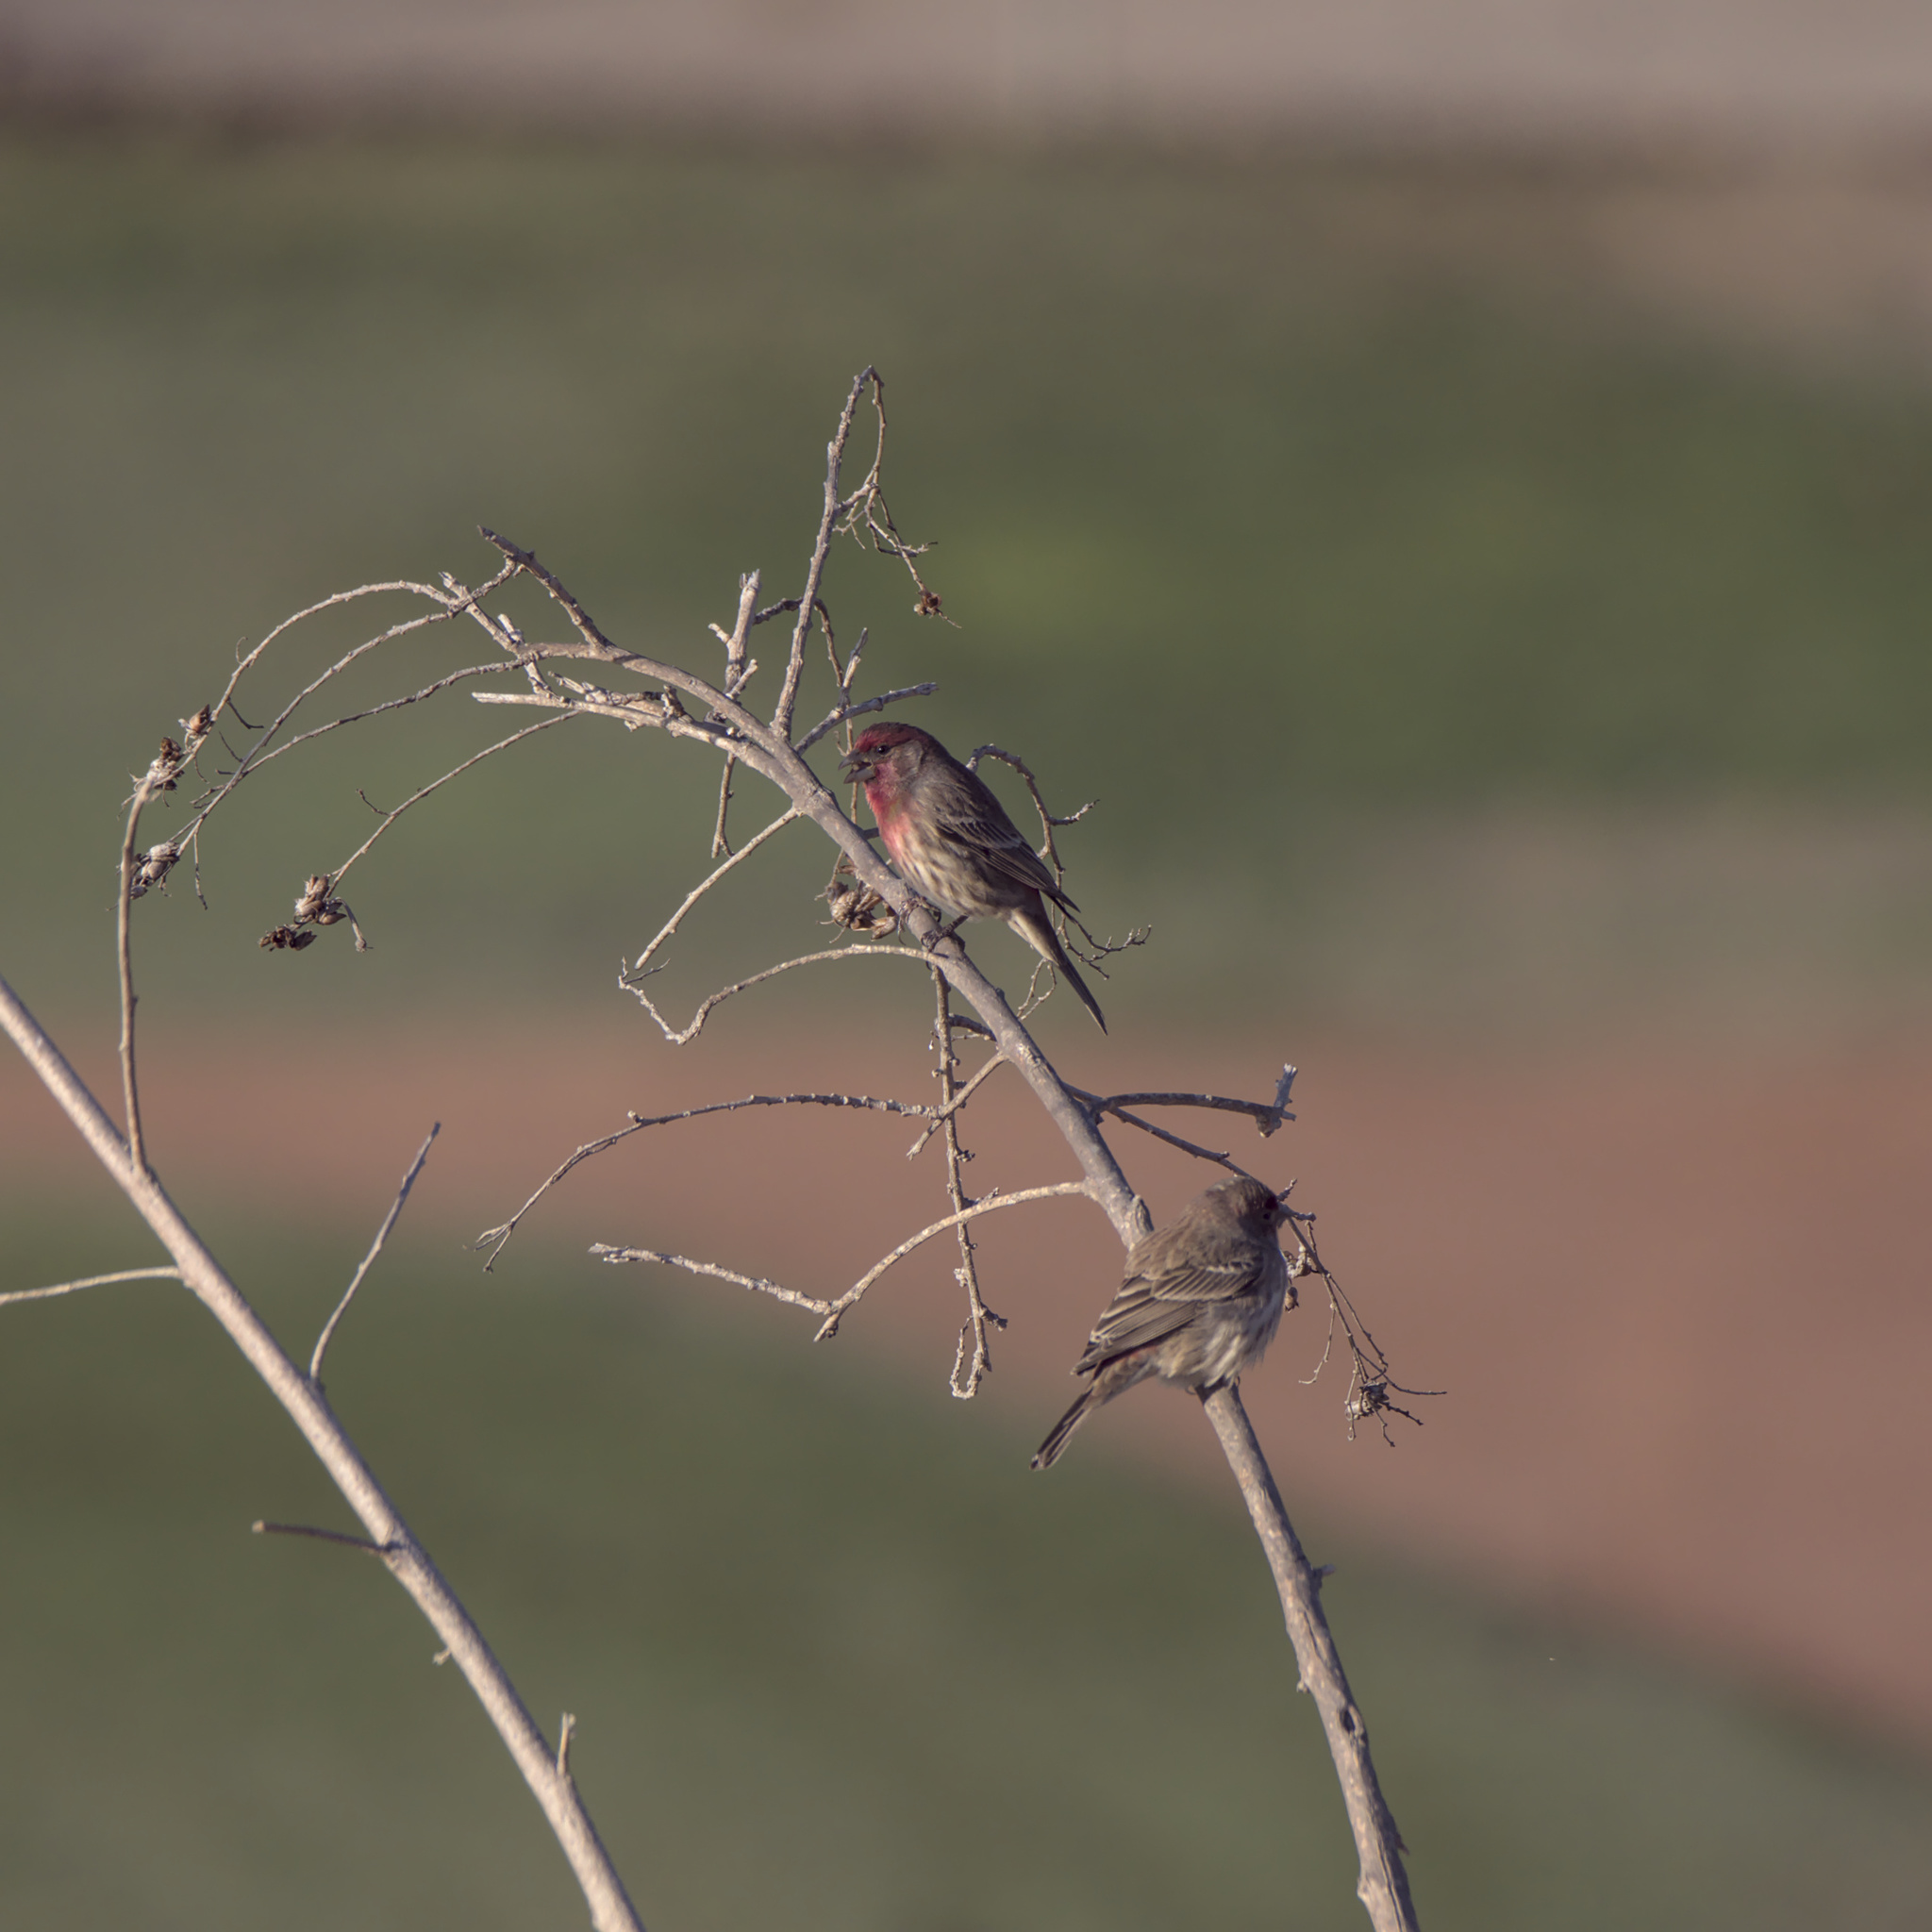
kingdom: Animalia
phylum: Chordata
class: Aves
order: Passeriformes
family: Fringillidae
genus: Haemorhous
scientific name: Haemorhous mexicanus
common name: House finch
